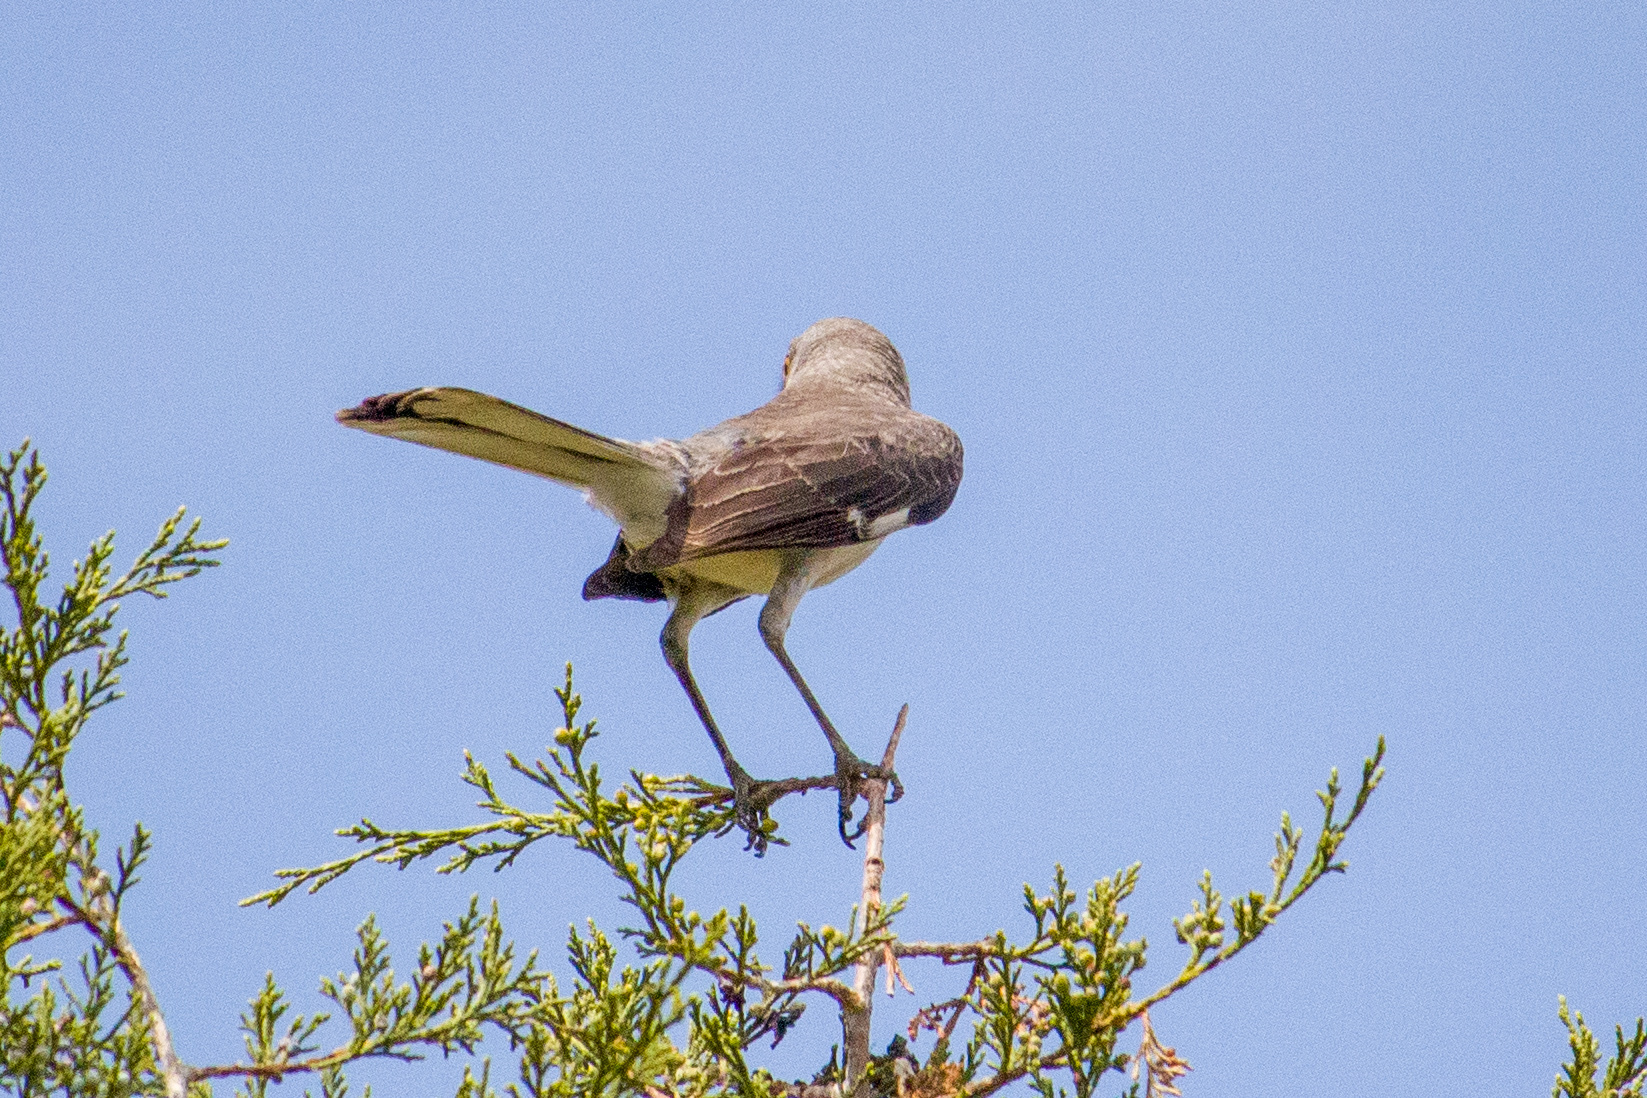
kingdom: Animalia
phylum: Chordata
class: Aves
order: Passeriformes
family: Mimidae
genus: Mimus
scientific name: Mimus polyglottos
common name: Northern mockingbird
